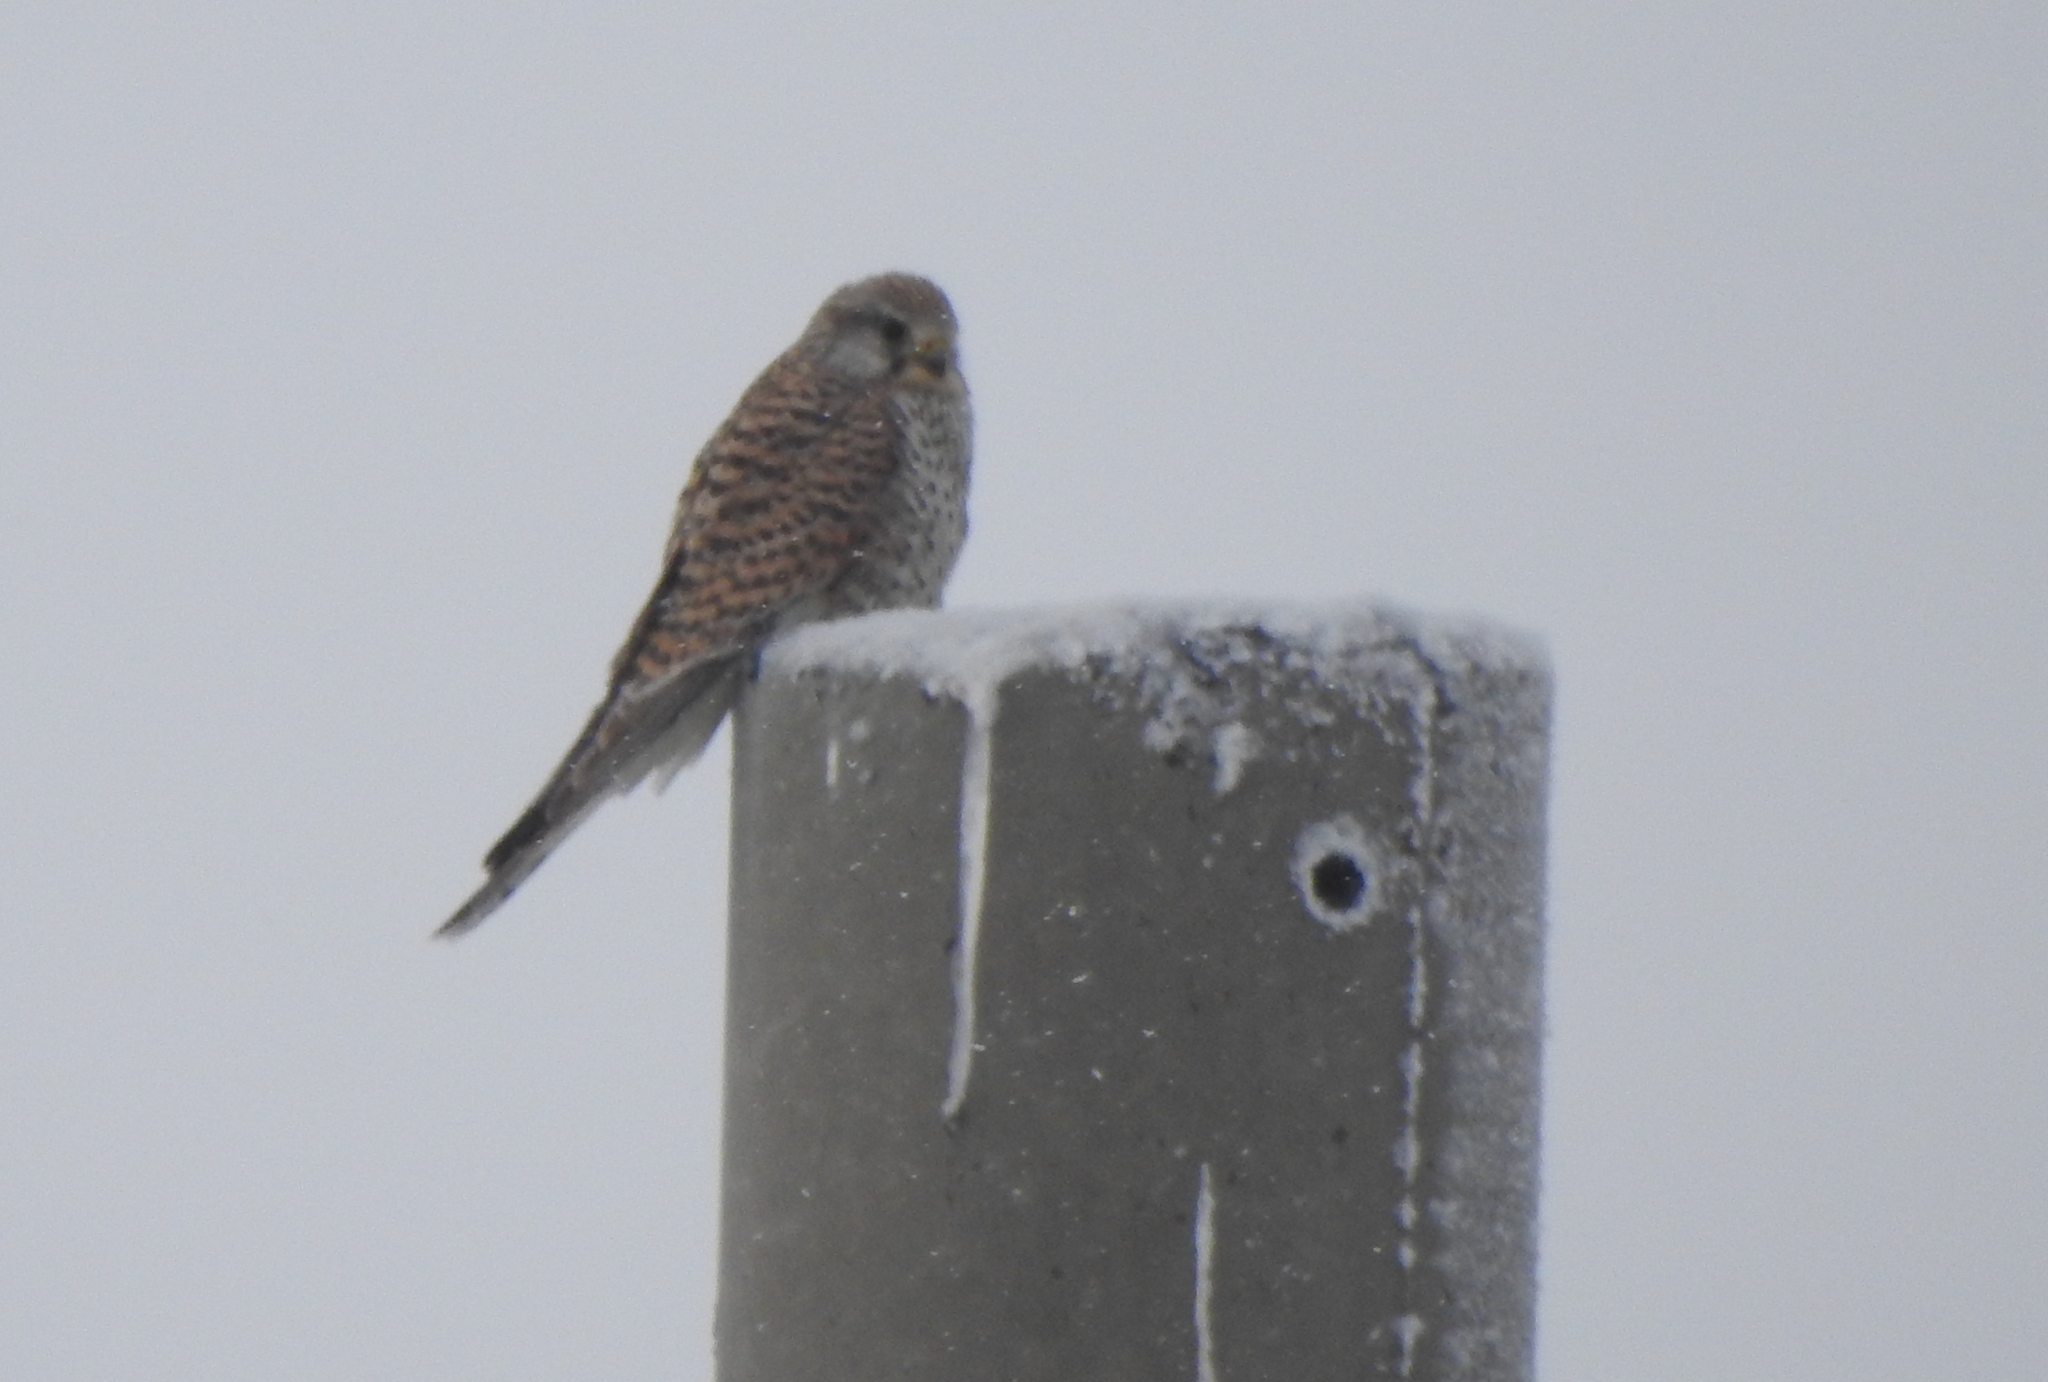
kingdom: Animalia
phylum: Chordata
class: Aves
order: Falconiformes
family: Falconidae
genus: Falco
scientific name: Falco tinnunculus
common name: Common kestrel
